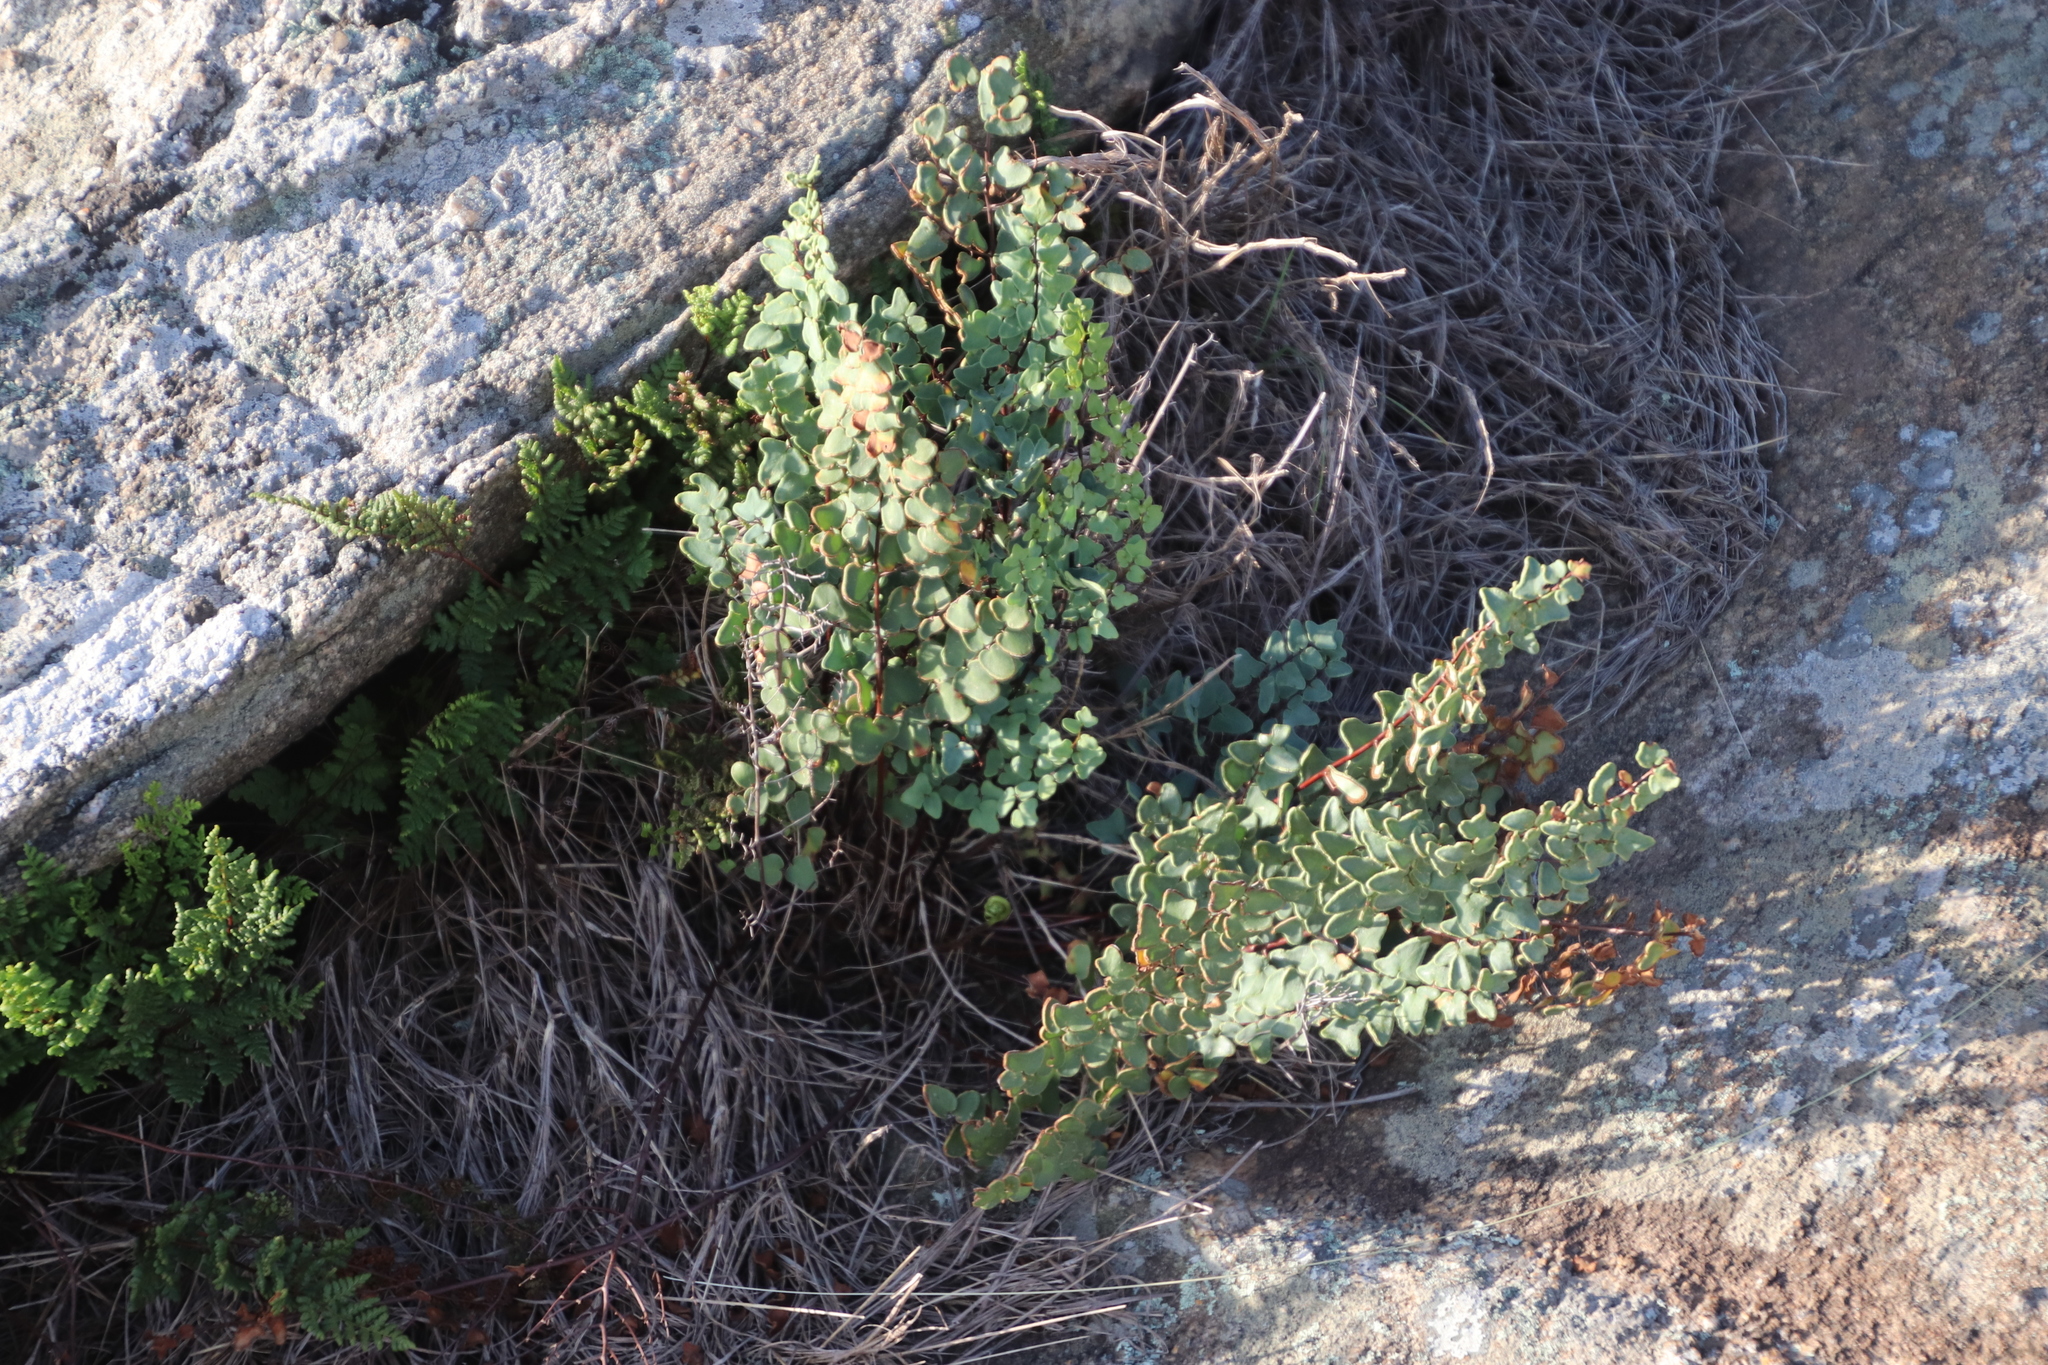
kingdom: Plantae
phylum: Tracheophyta
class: Polypodiopsida
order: Polypodiales
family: Pteridaceae
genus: Pellaea
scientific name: Pellaea calomelanos
